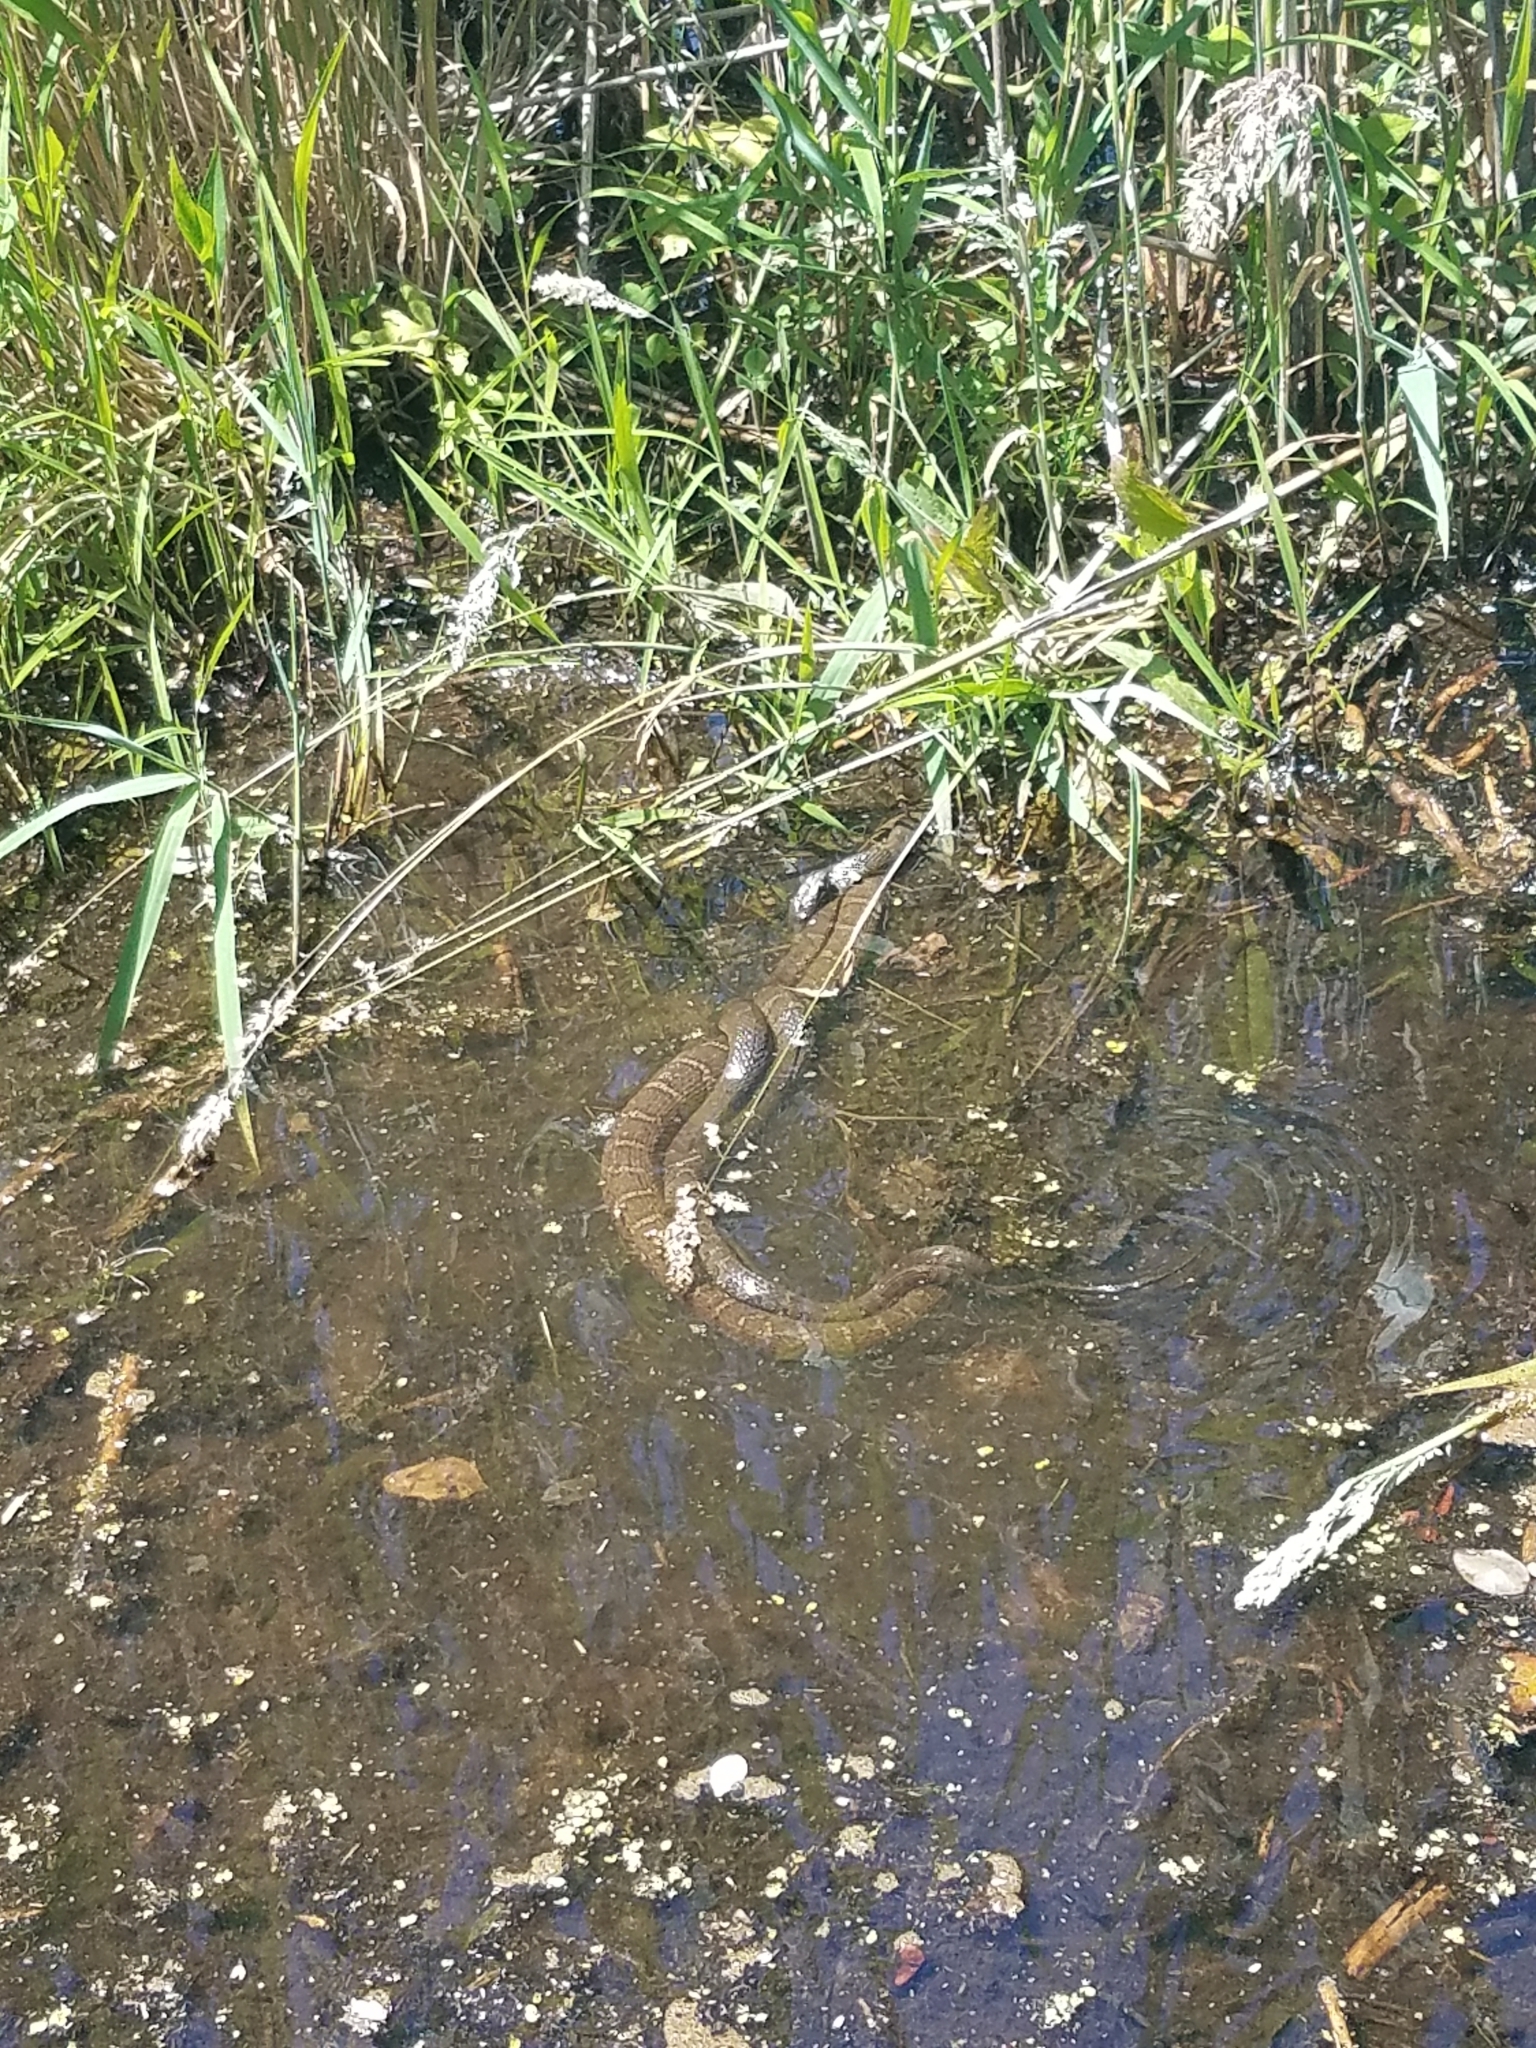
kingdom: Animalia
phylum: Chordata
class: Squamata
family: Colubridae
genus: Nerodia
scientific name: Nerodia sipedon
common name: Northern water snake
